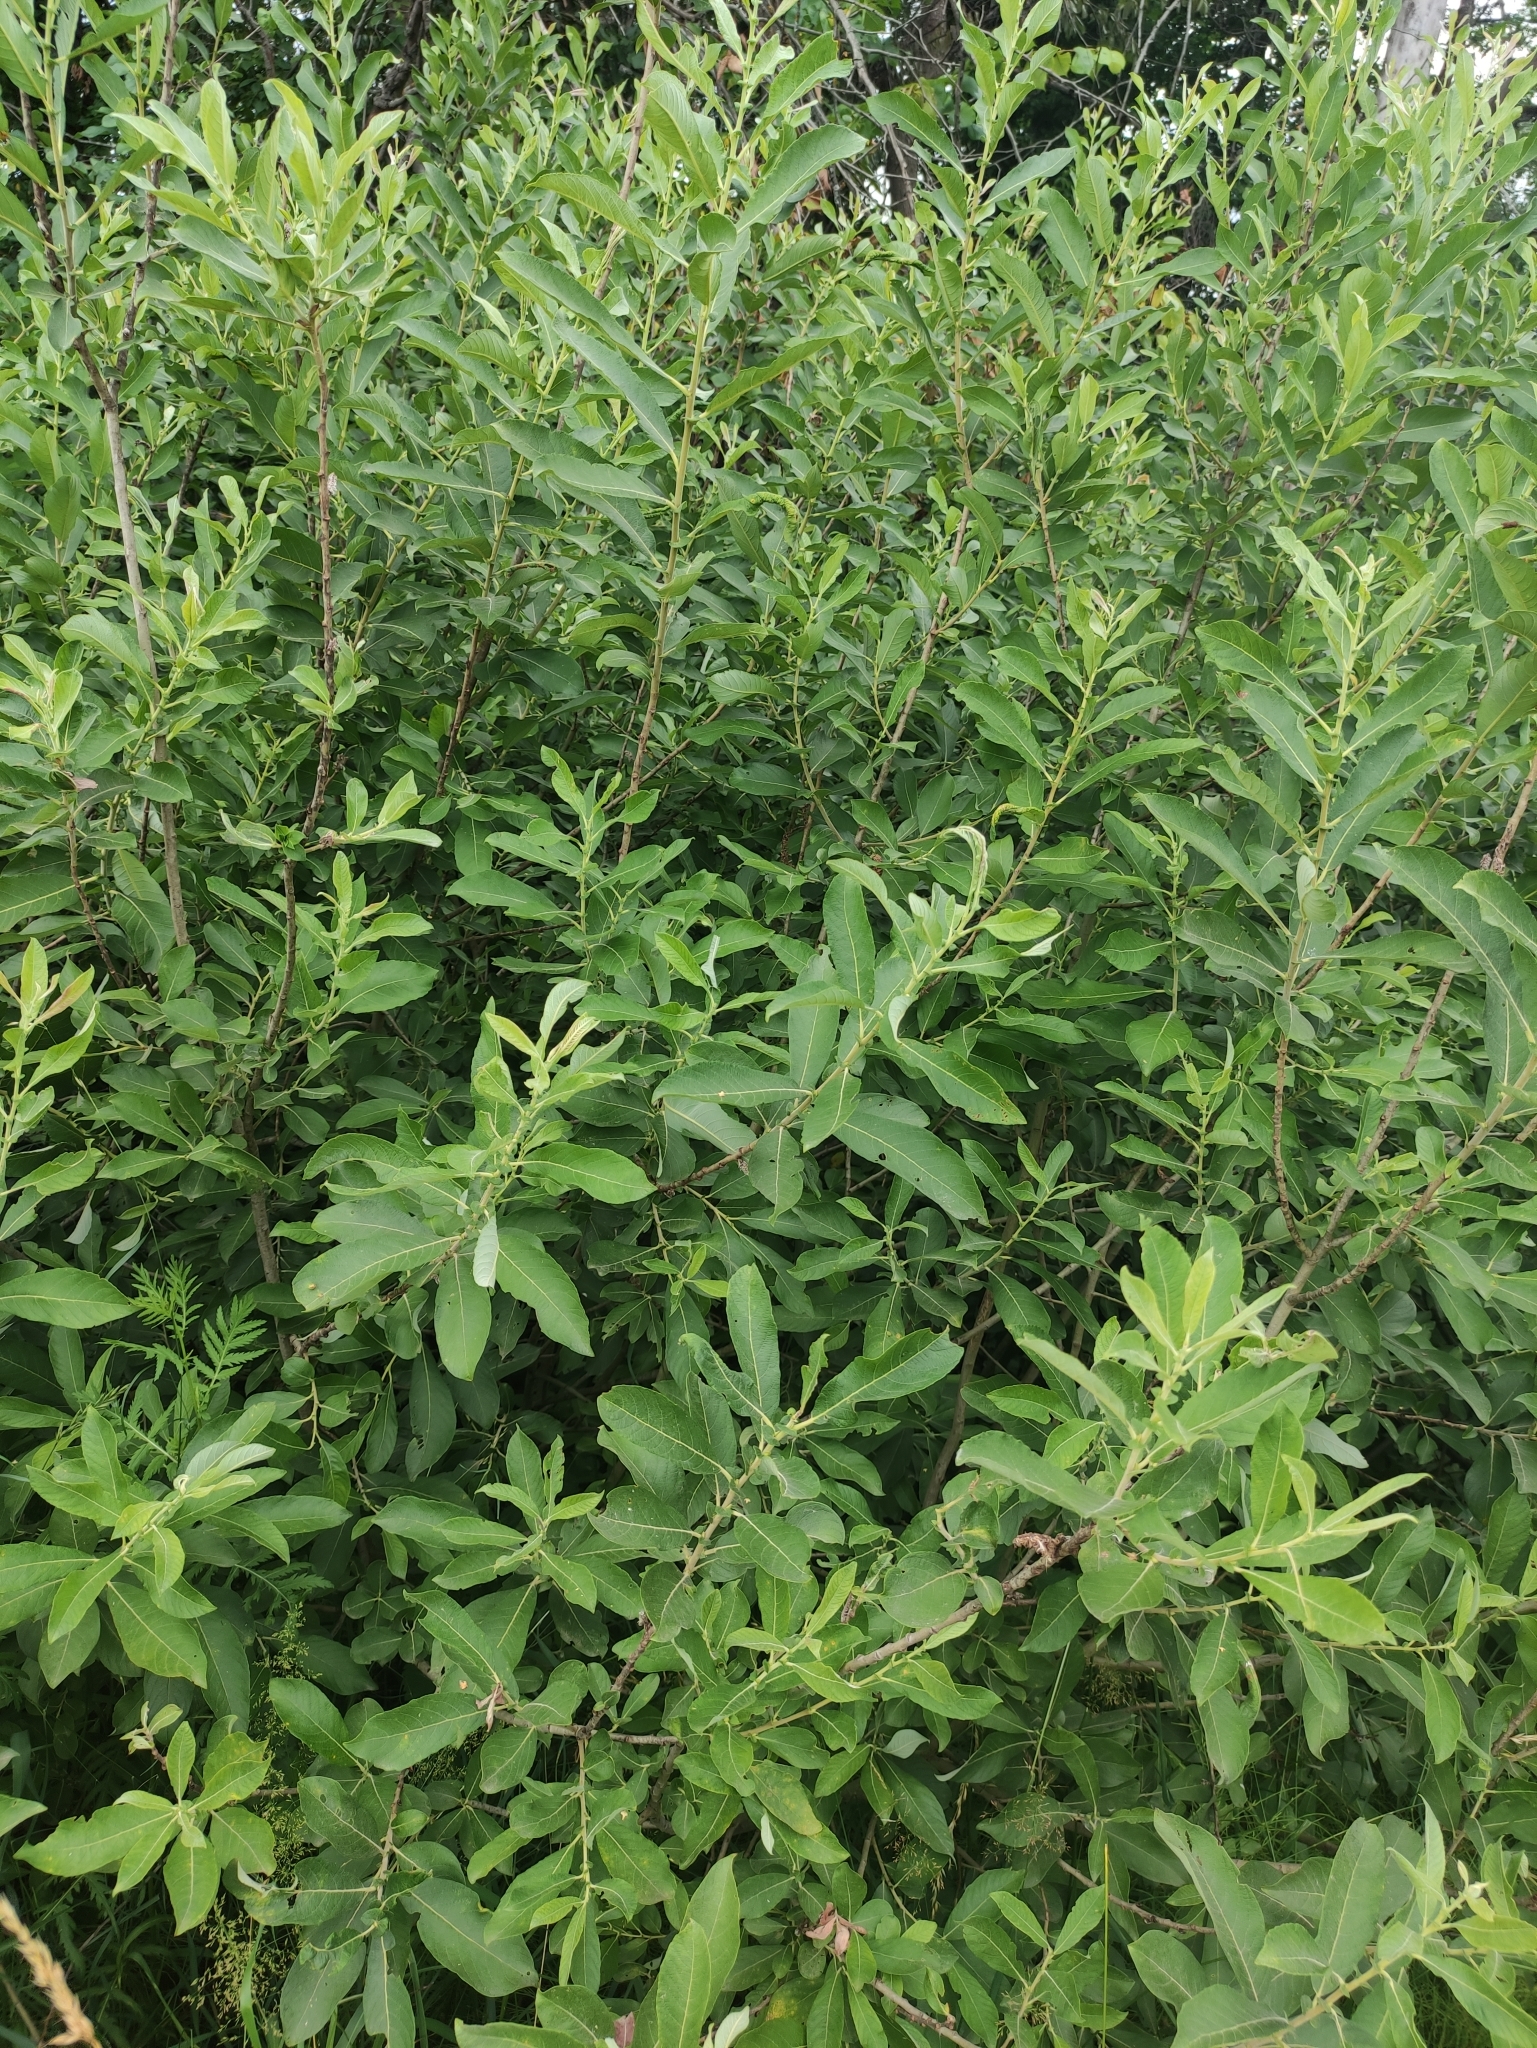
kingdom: Plantae
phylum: Tracheophyta
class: Magnoliopsida
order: Malpighiales
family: Salicaceae
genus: Salix
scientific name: Salix cinerea
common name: Common sallow
